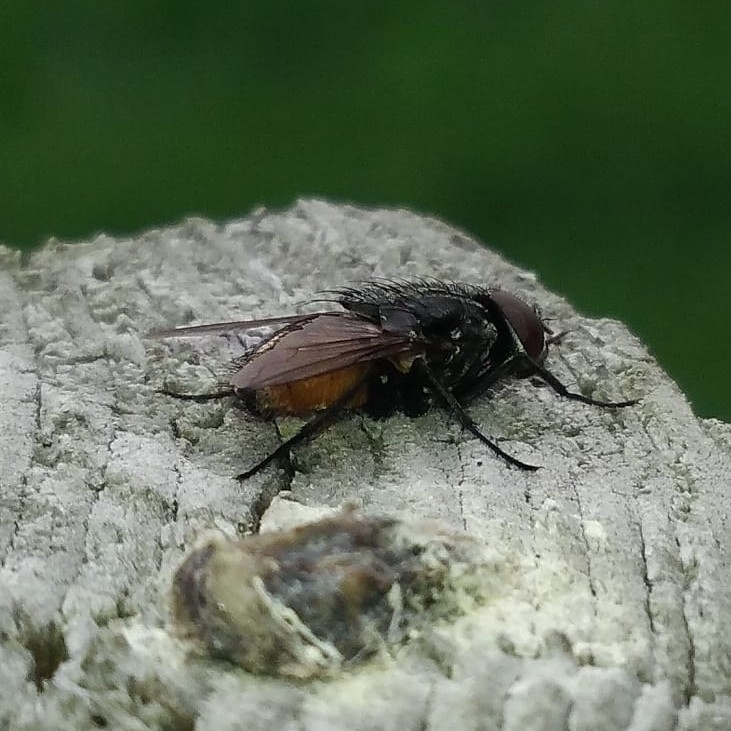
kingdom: Animalia
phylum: Arthropoda
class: Insecta
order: Diptera
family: Muscidae
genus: Musca
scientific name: Musca autumnalis
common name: Face fly
